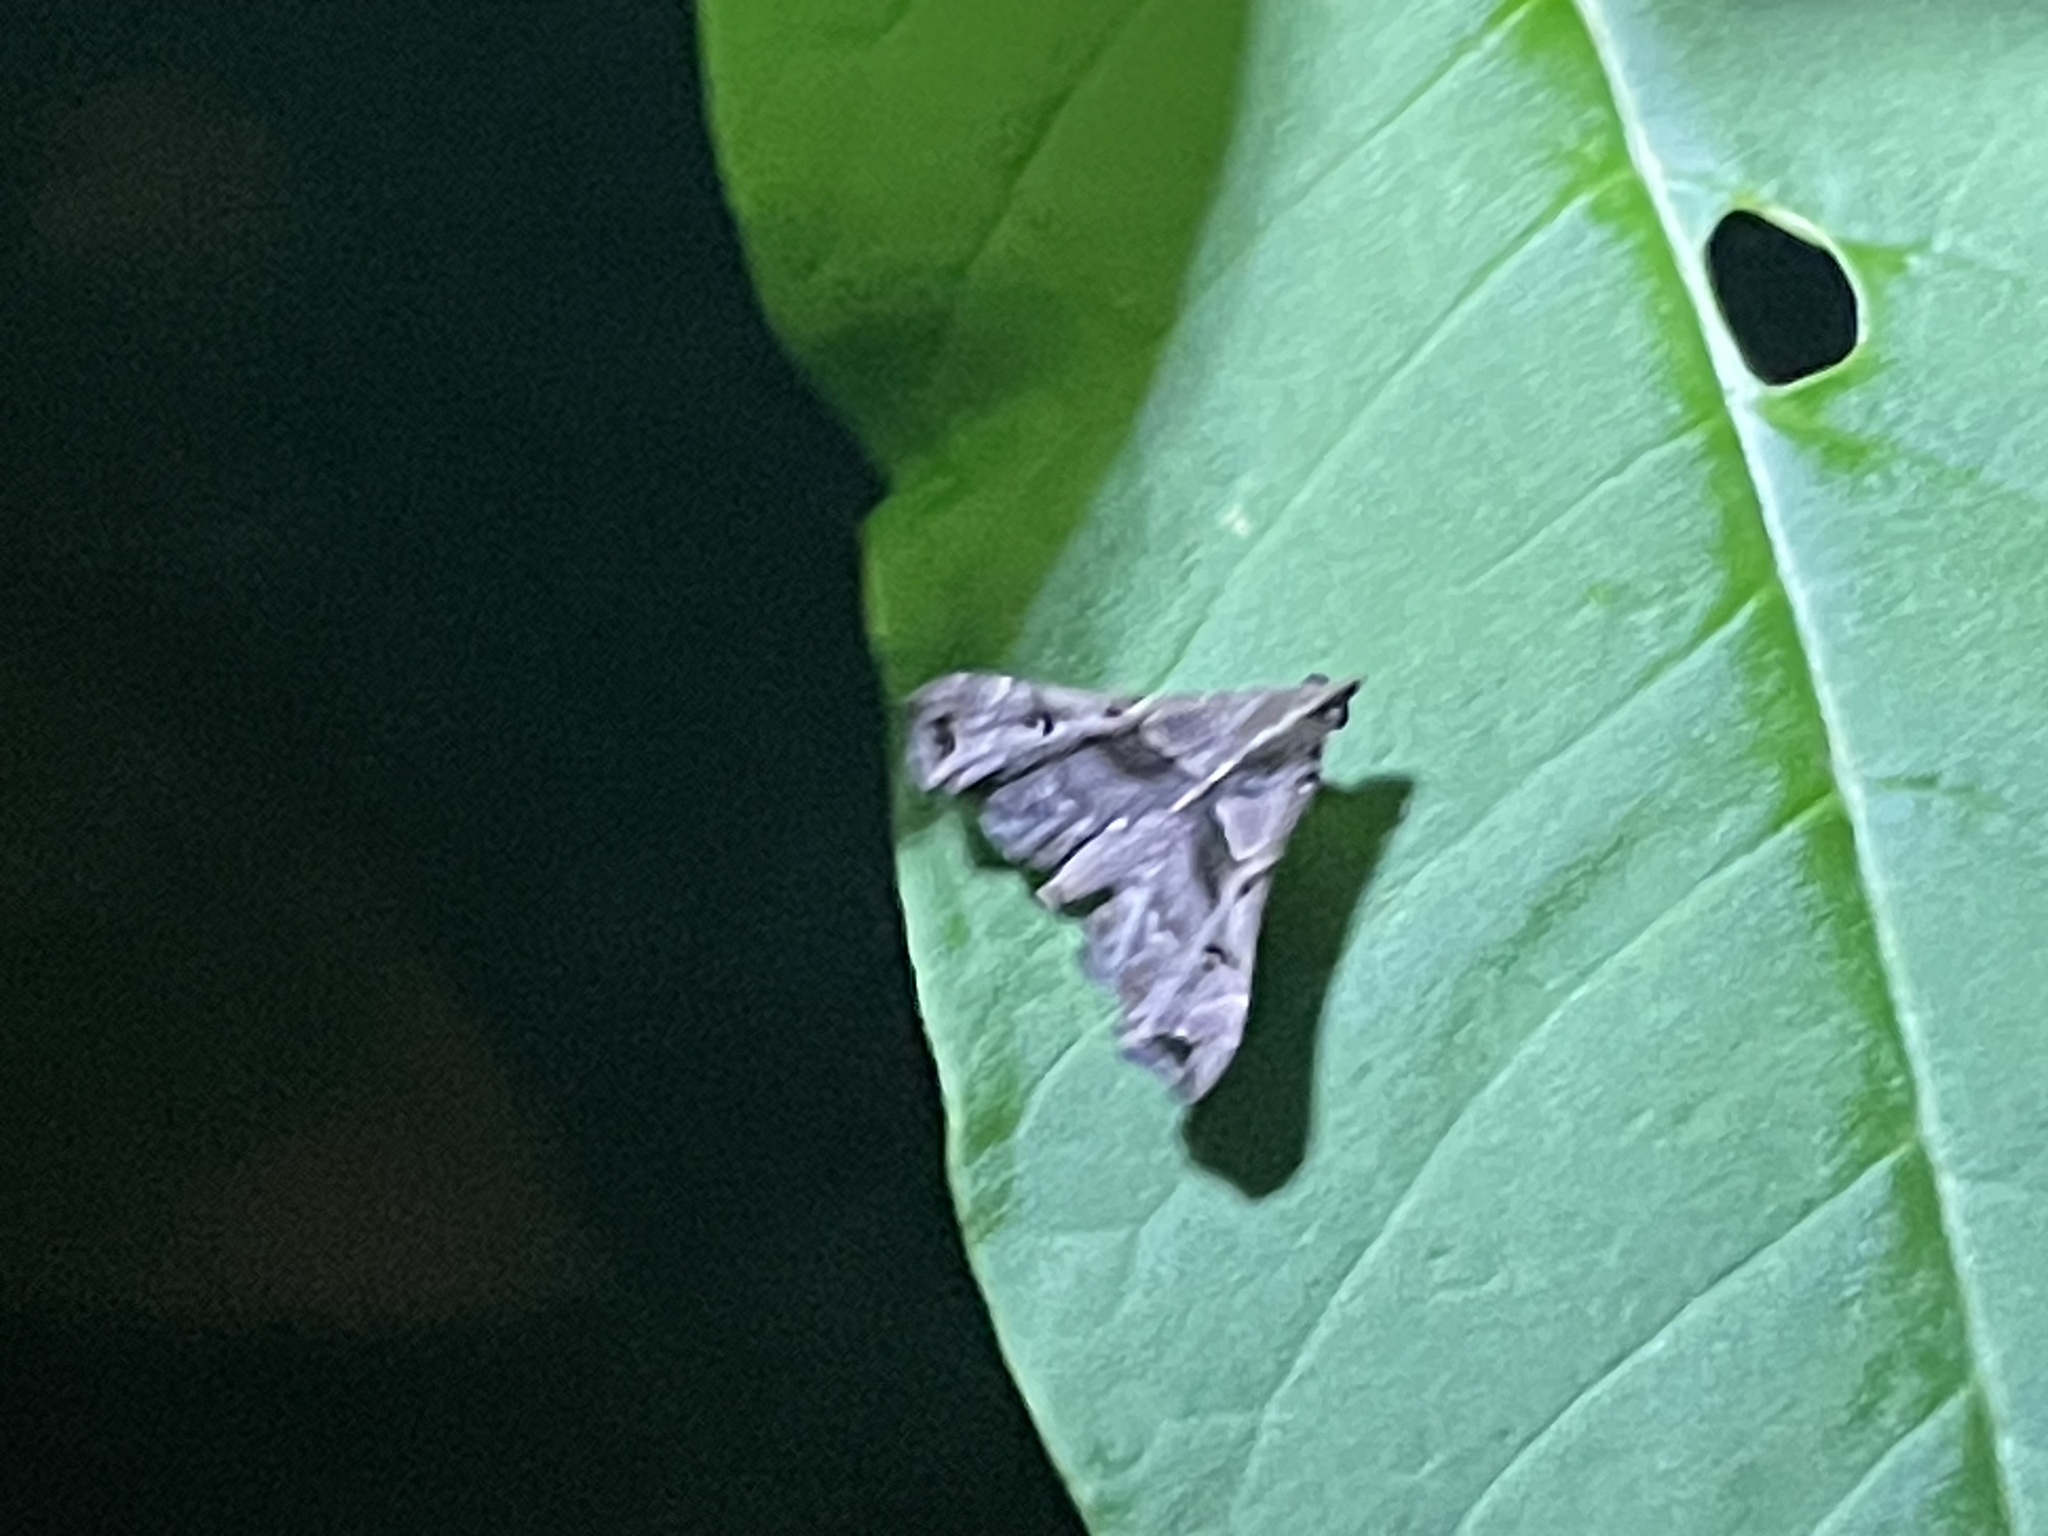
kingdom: Animalia
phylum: Arthropoda
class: Insecta
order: Lepidoptera
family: Erebidae
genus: Palthis
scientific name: Palthis asopialis
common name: Faint-spotted palthis moth
